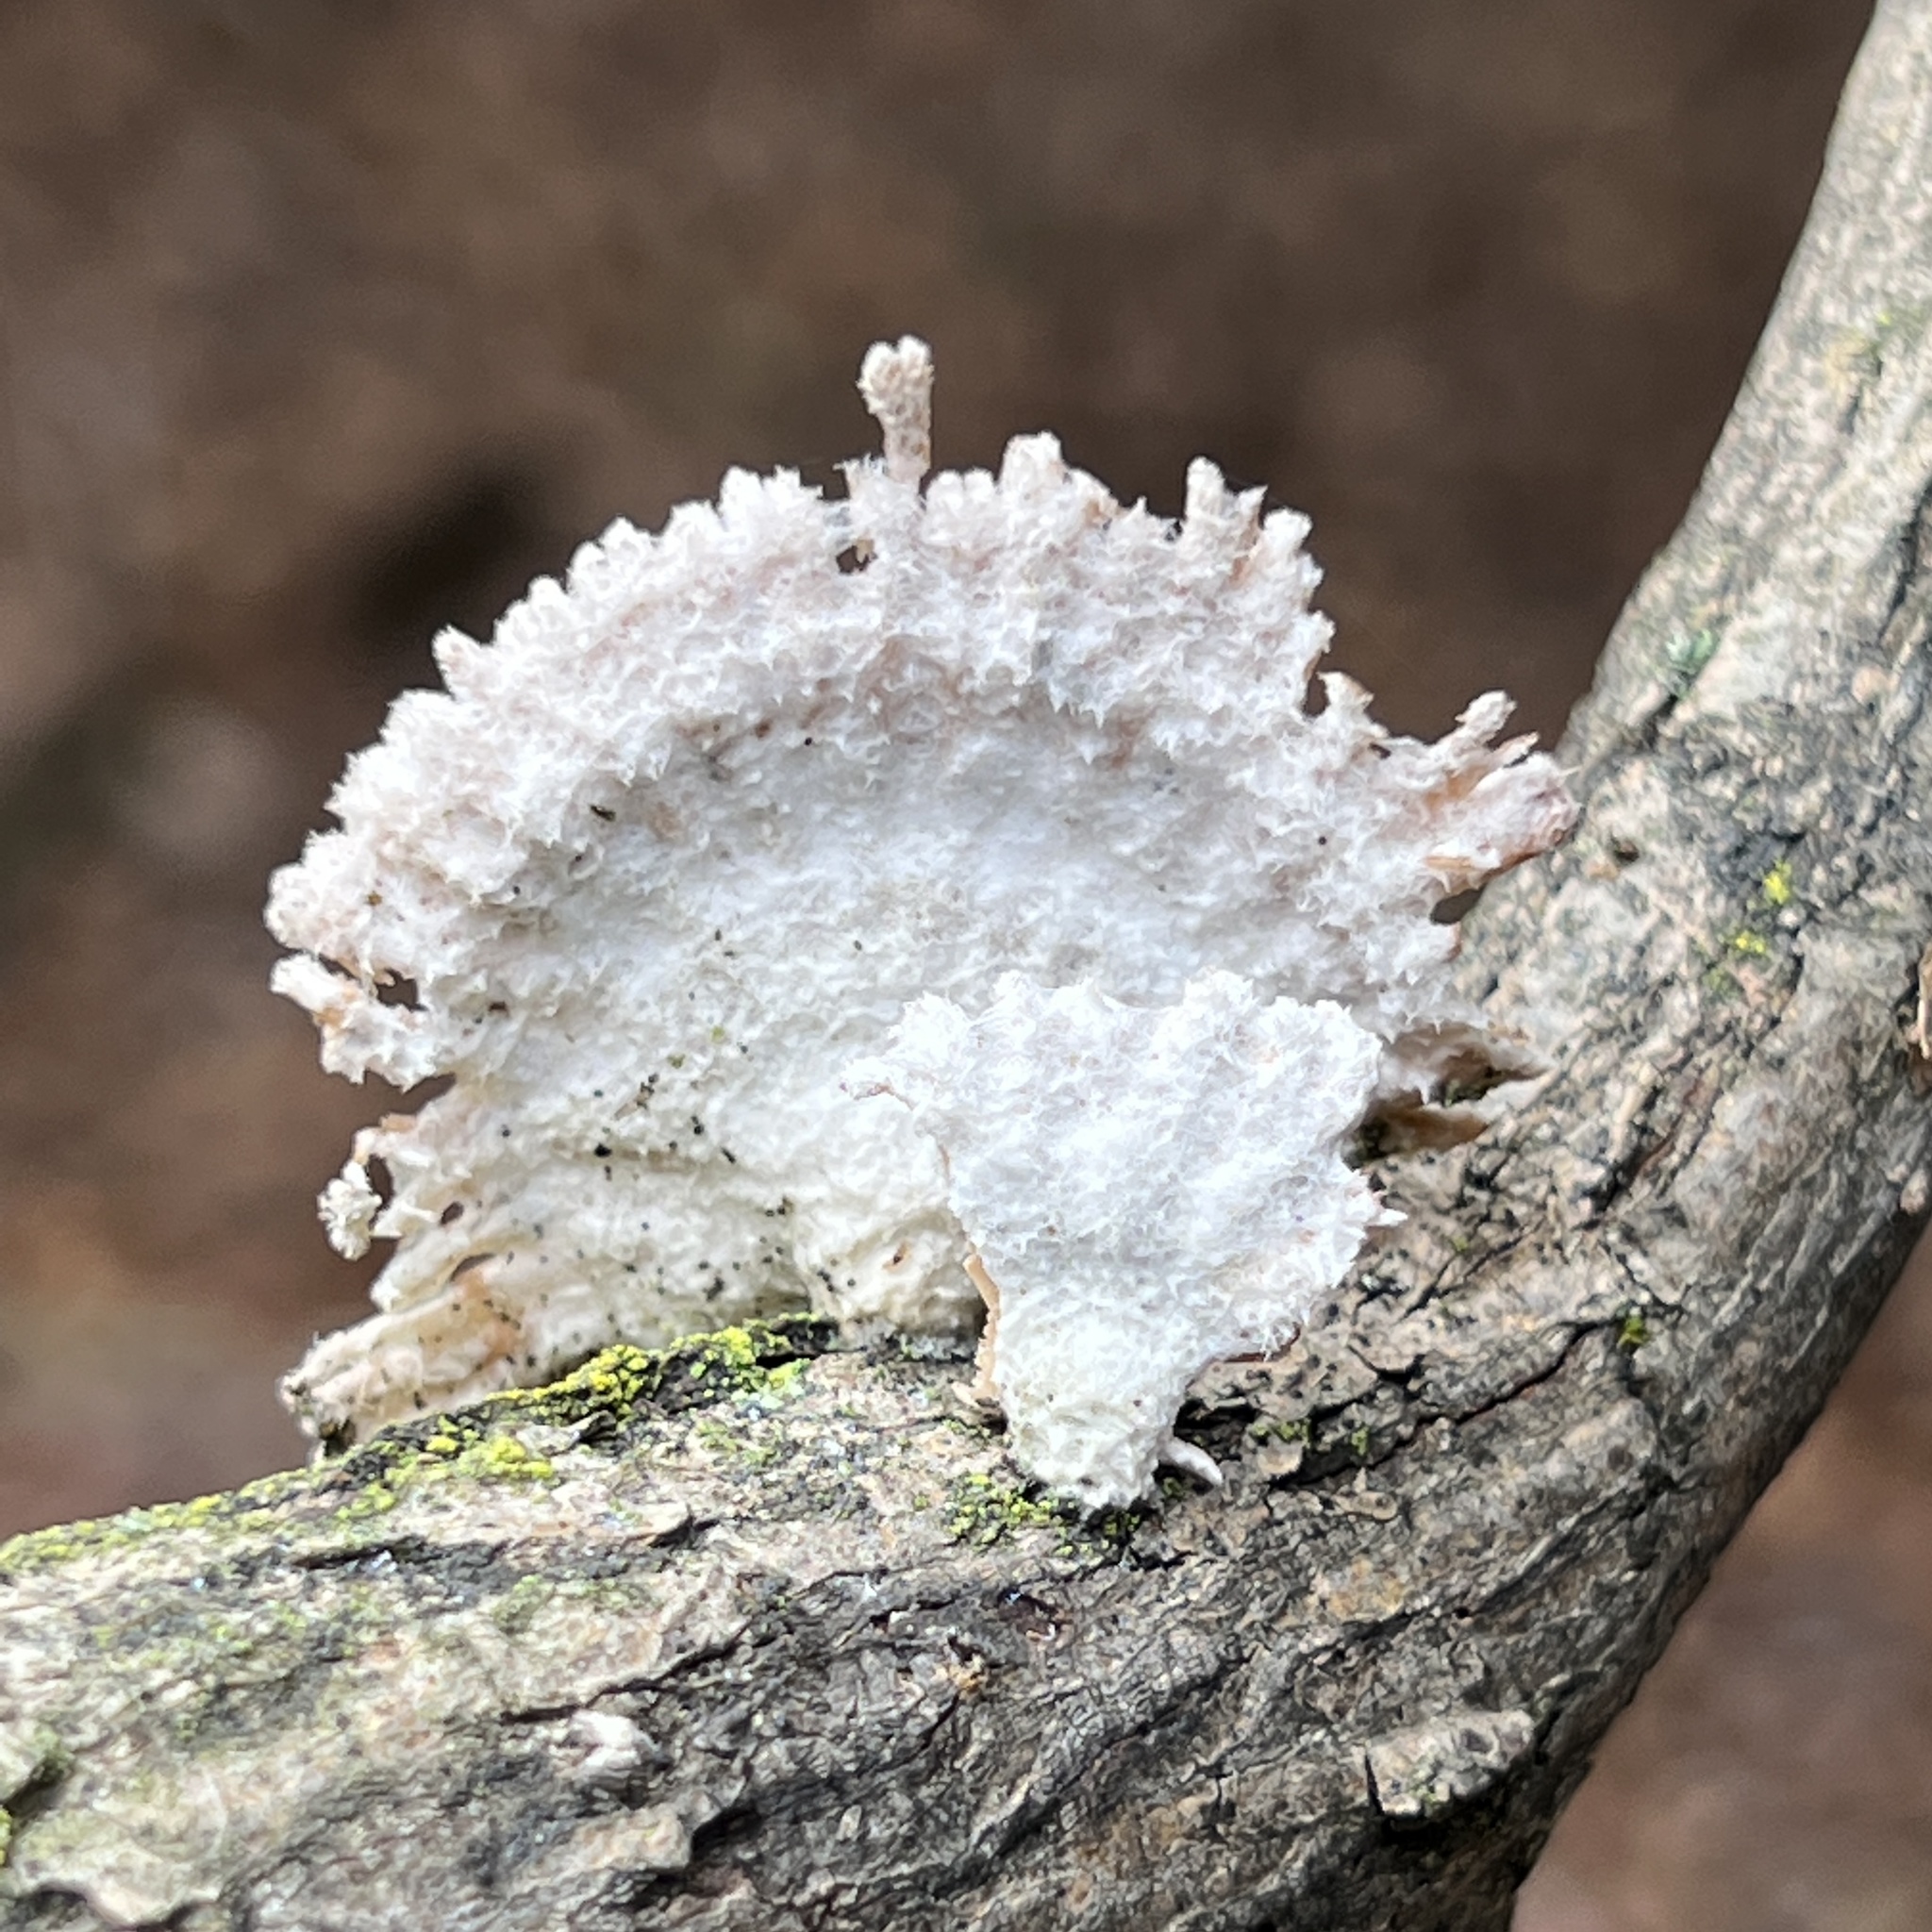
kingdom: Fungi
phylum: Basidiomycota
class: Agaricomycetes
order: Agaricales
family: Schizophyllaceae
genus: Schizophyllum
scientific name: Schizophyllum commune
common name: Common porecrust
